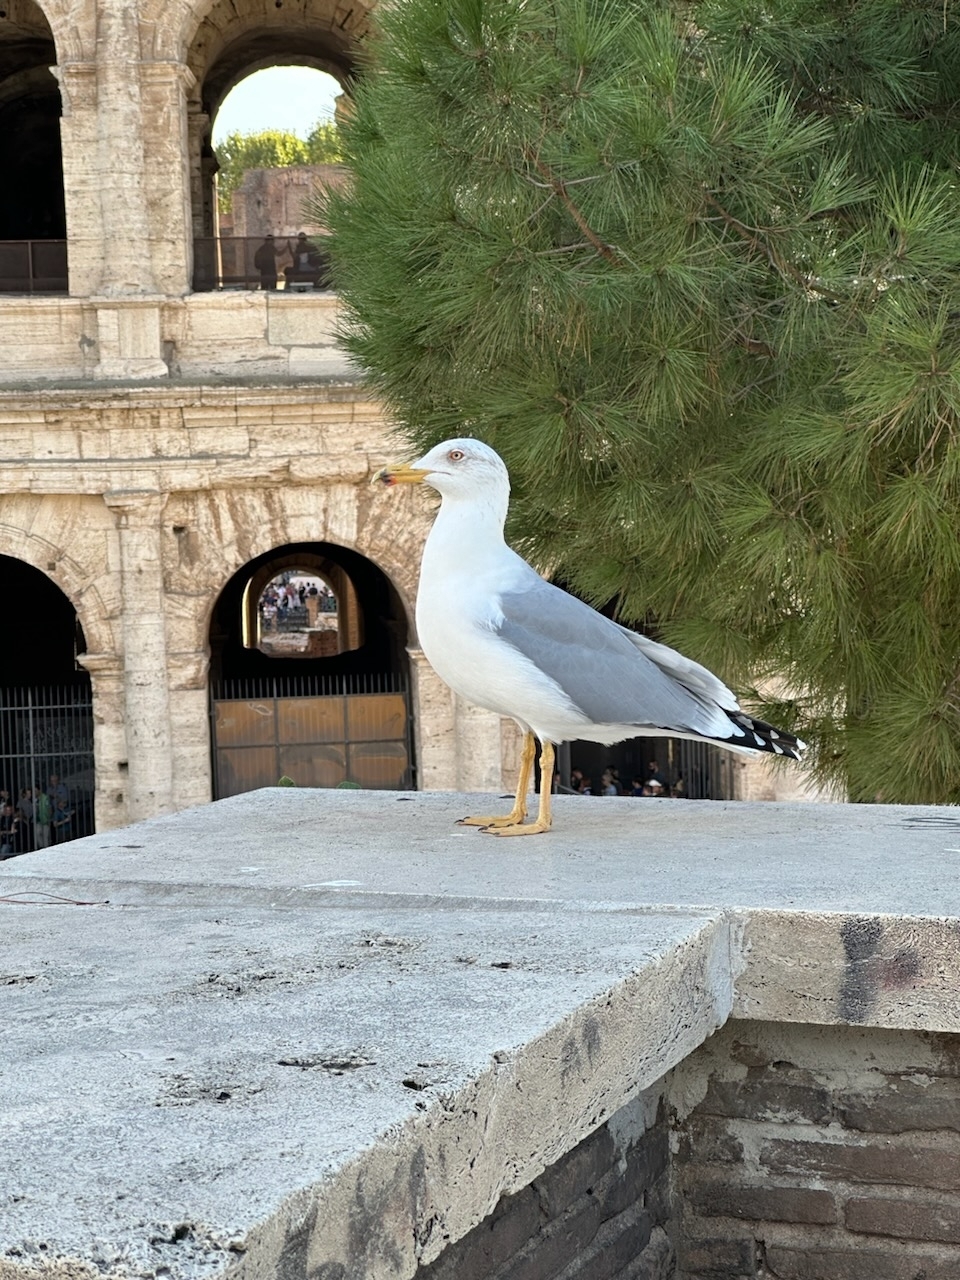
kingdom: Animalia
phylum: Chordata
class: Aves
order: Charadriiformes
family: Laridae
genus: Larus
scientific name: Larus michahellis
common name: Yellow-legged gull
